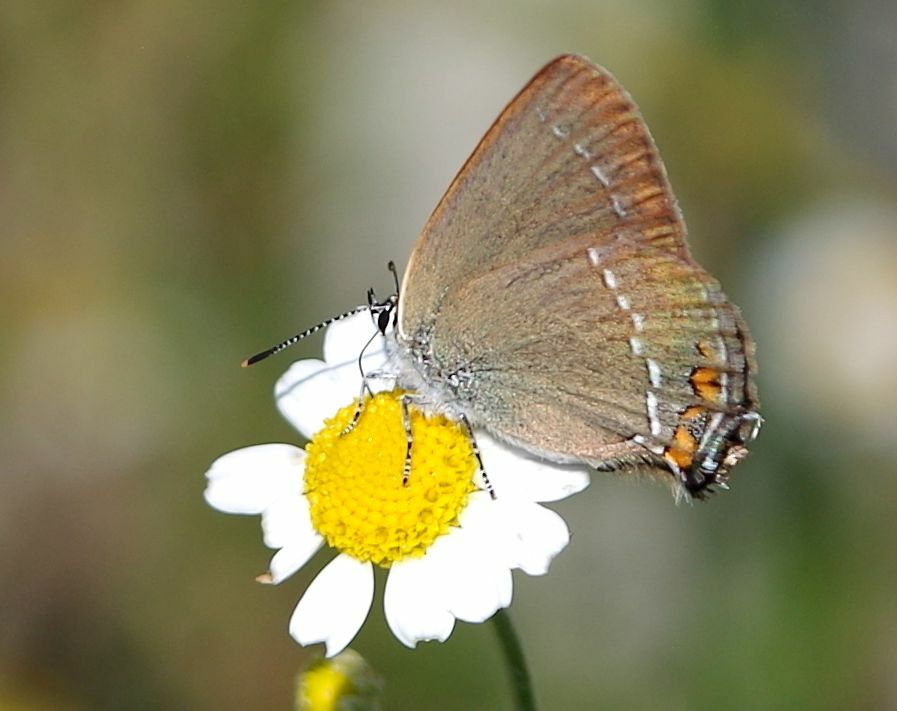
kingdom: Animalia
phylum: Arthropoda
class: Insecta
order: Lepidoptera
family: Lycaenidae
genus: Strymon
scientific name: Strymon acaciae
